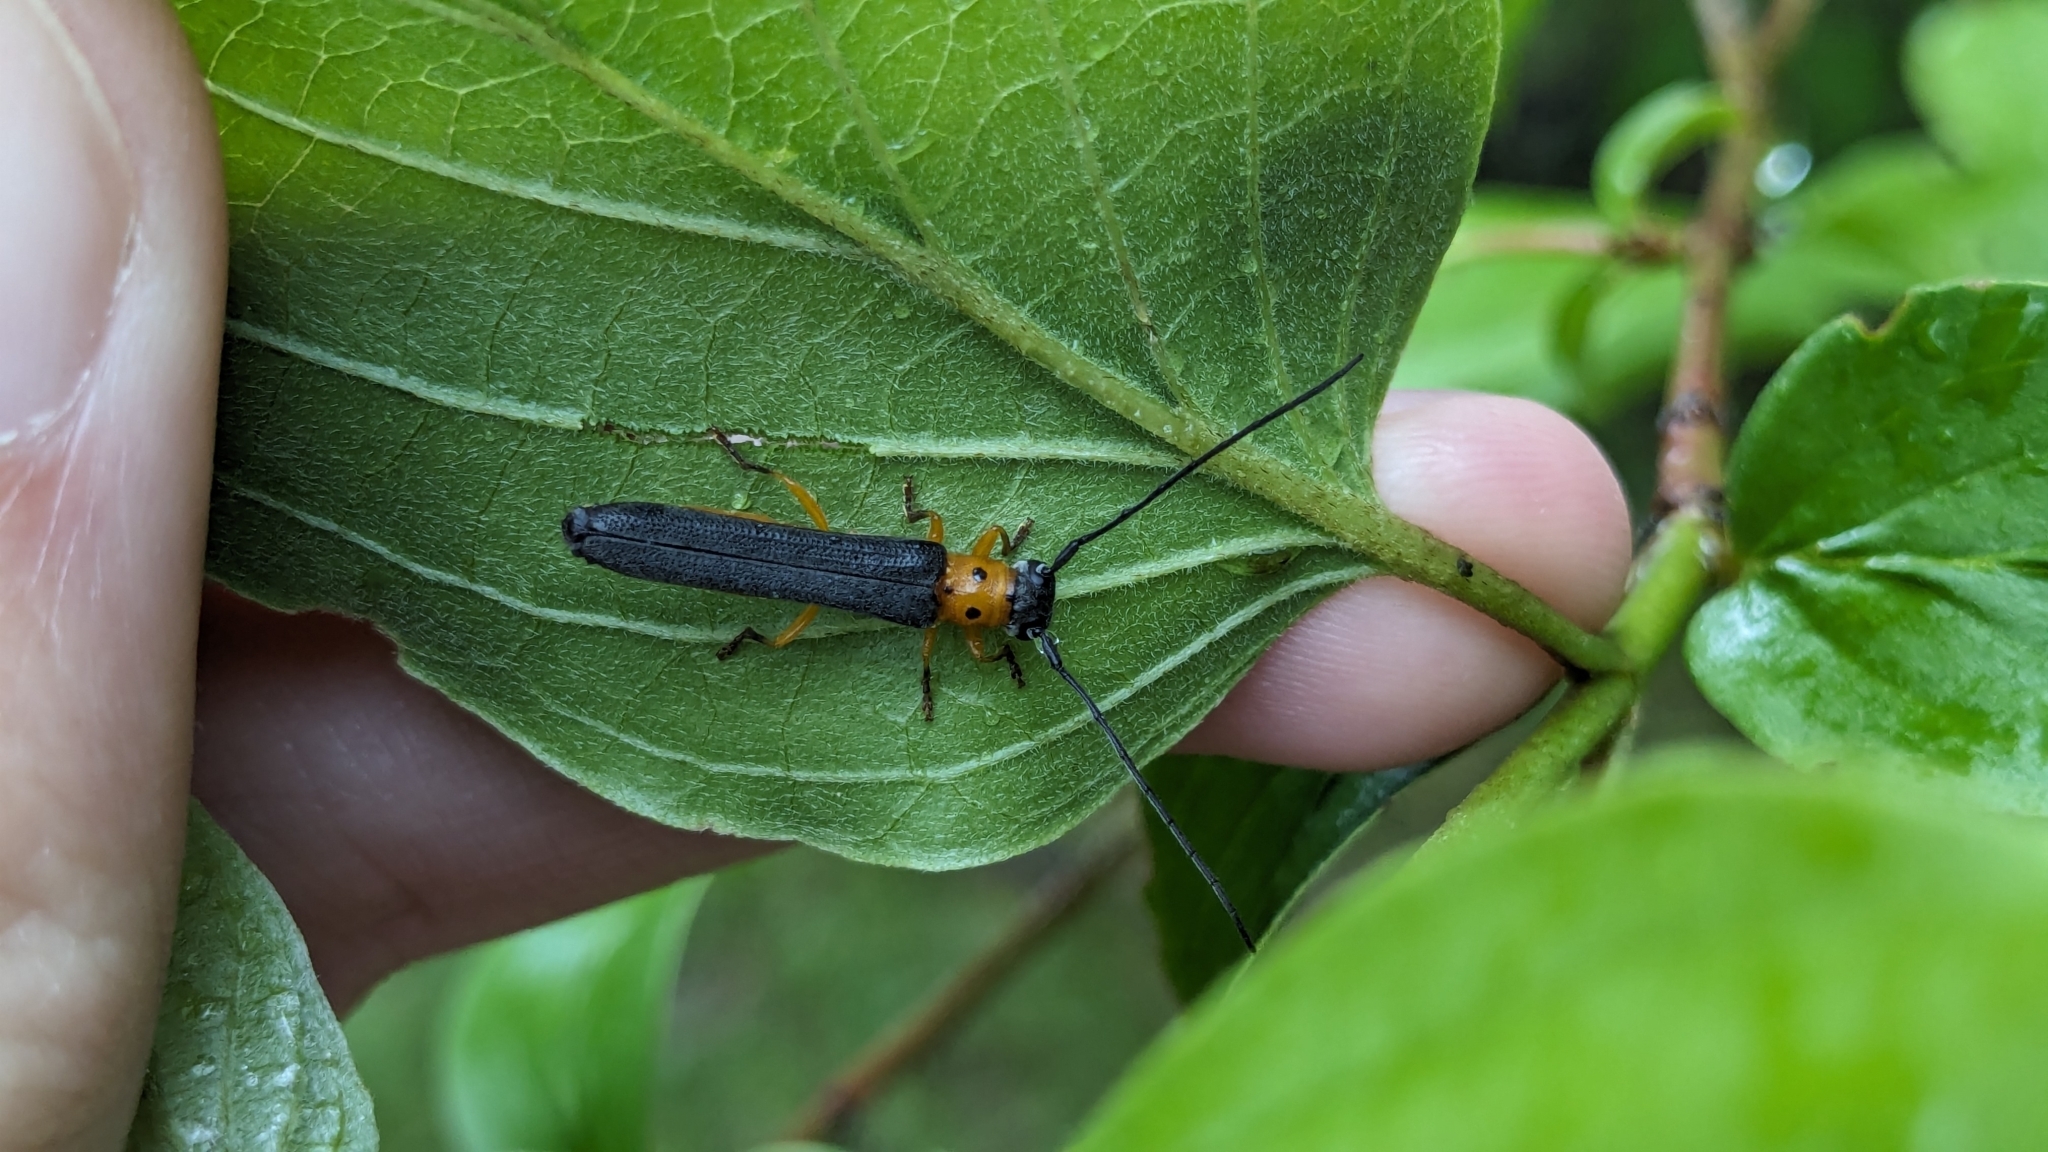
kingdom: Animalia
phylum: Arthropoda
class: Insecta
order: Coleoptera
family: Cerambycidae
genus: Oberea
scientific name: Oberea ulmicola
